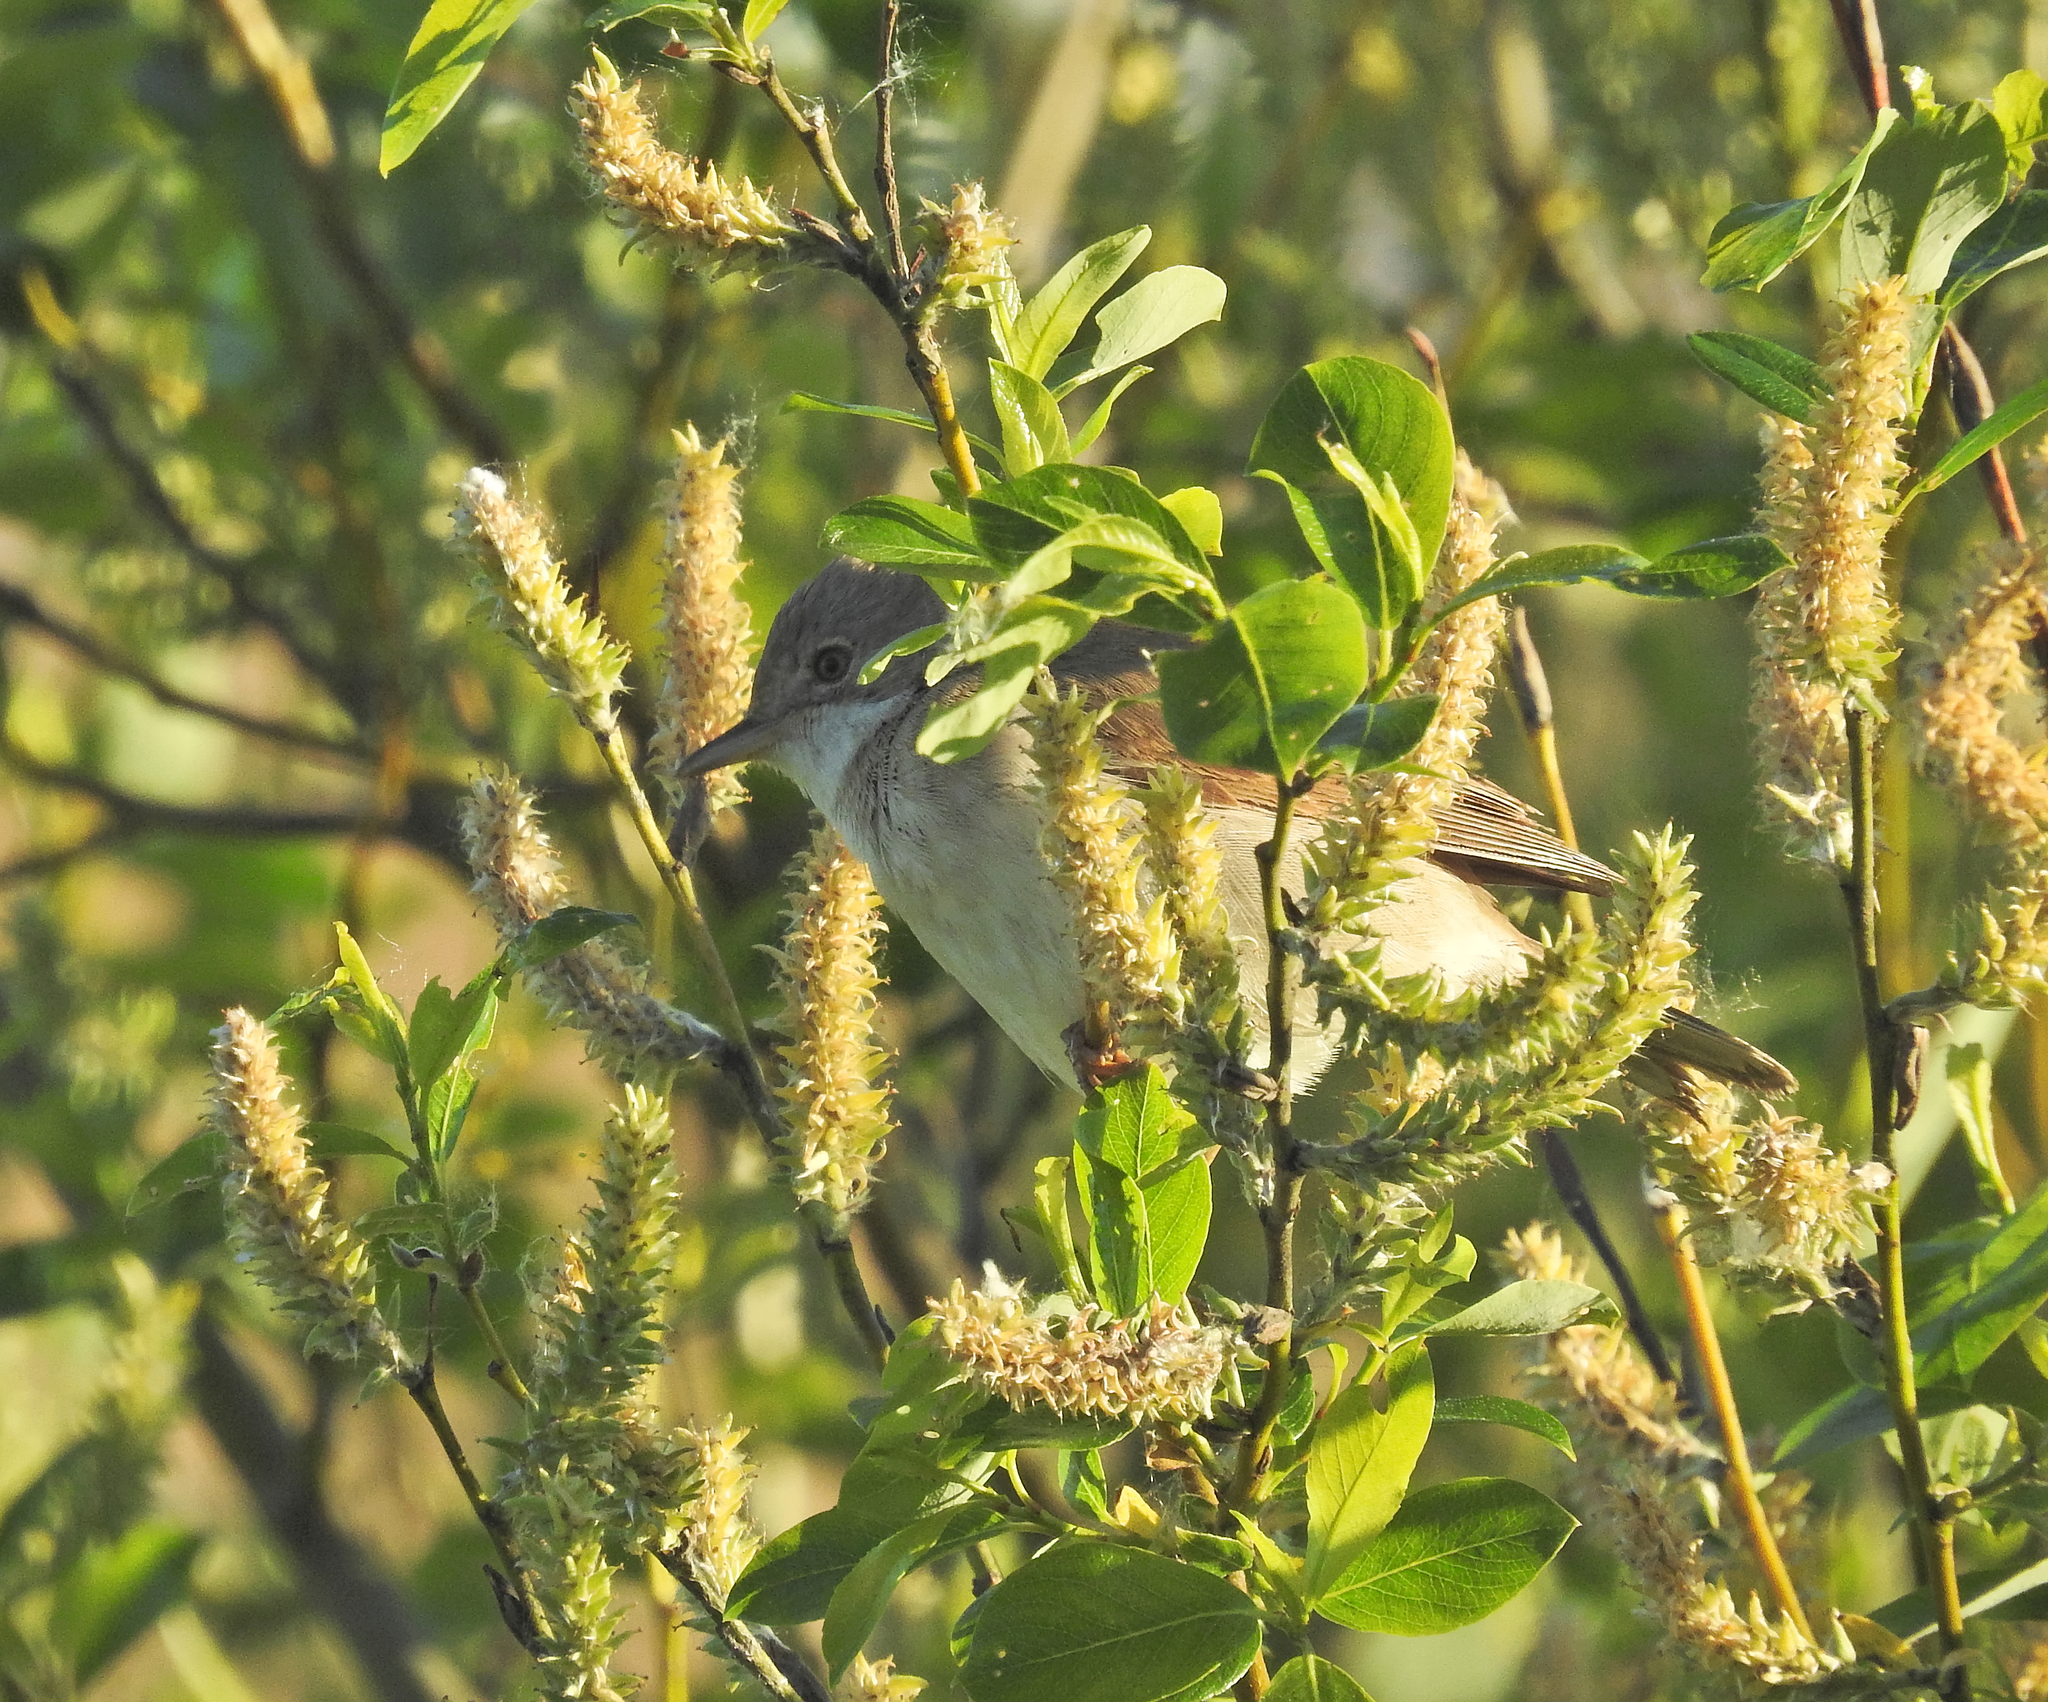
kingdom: Animalia
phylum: Chordata
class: Aves
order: Passeriformes
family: Sylviidae
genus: Sylvia
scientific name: Sylvia communis
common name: Common whitethroat
